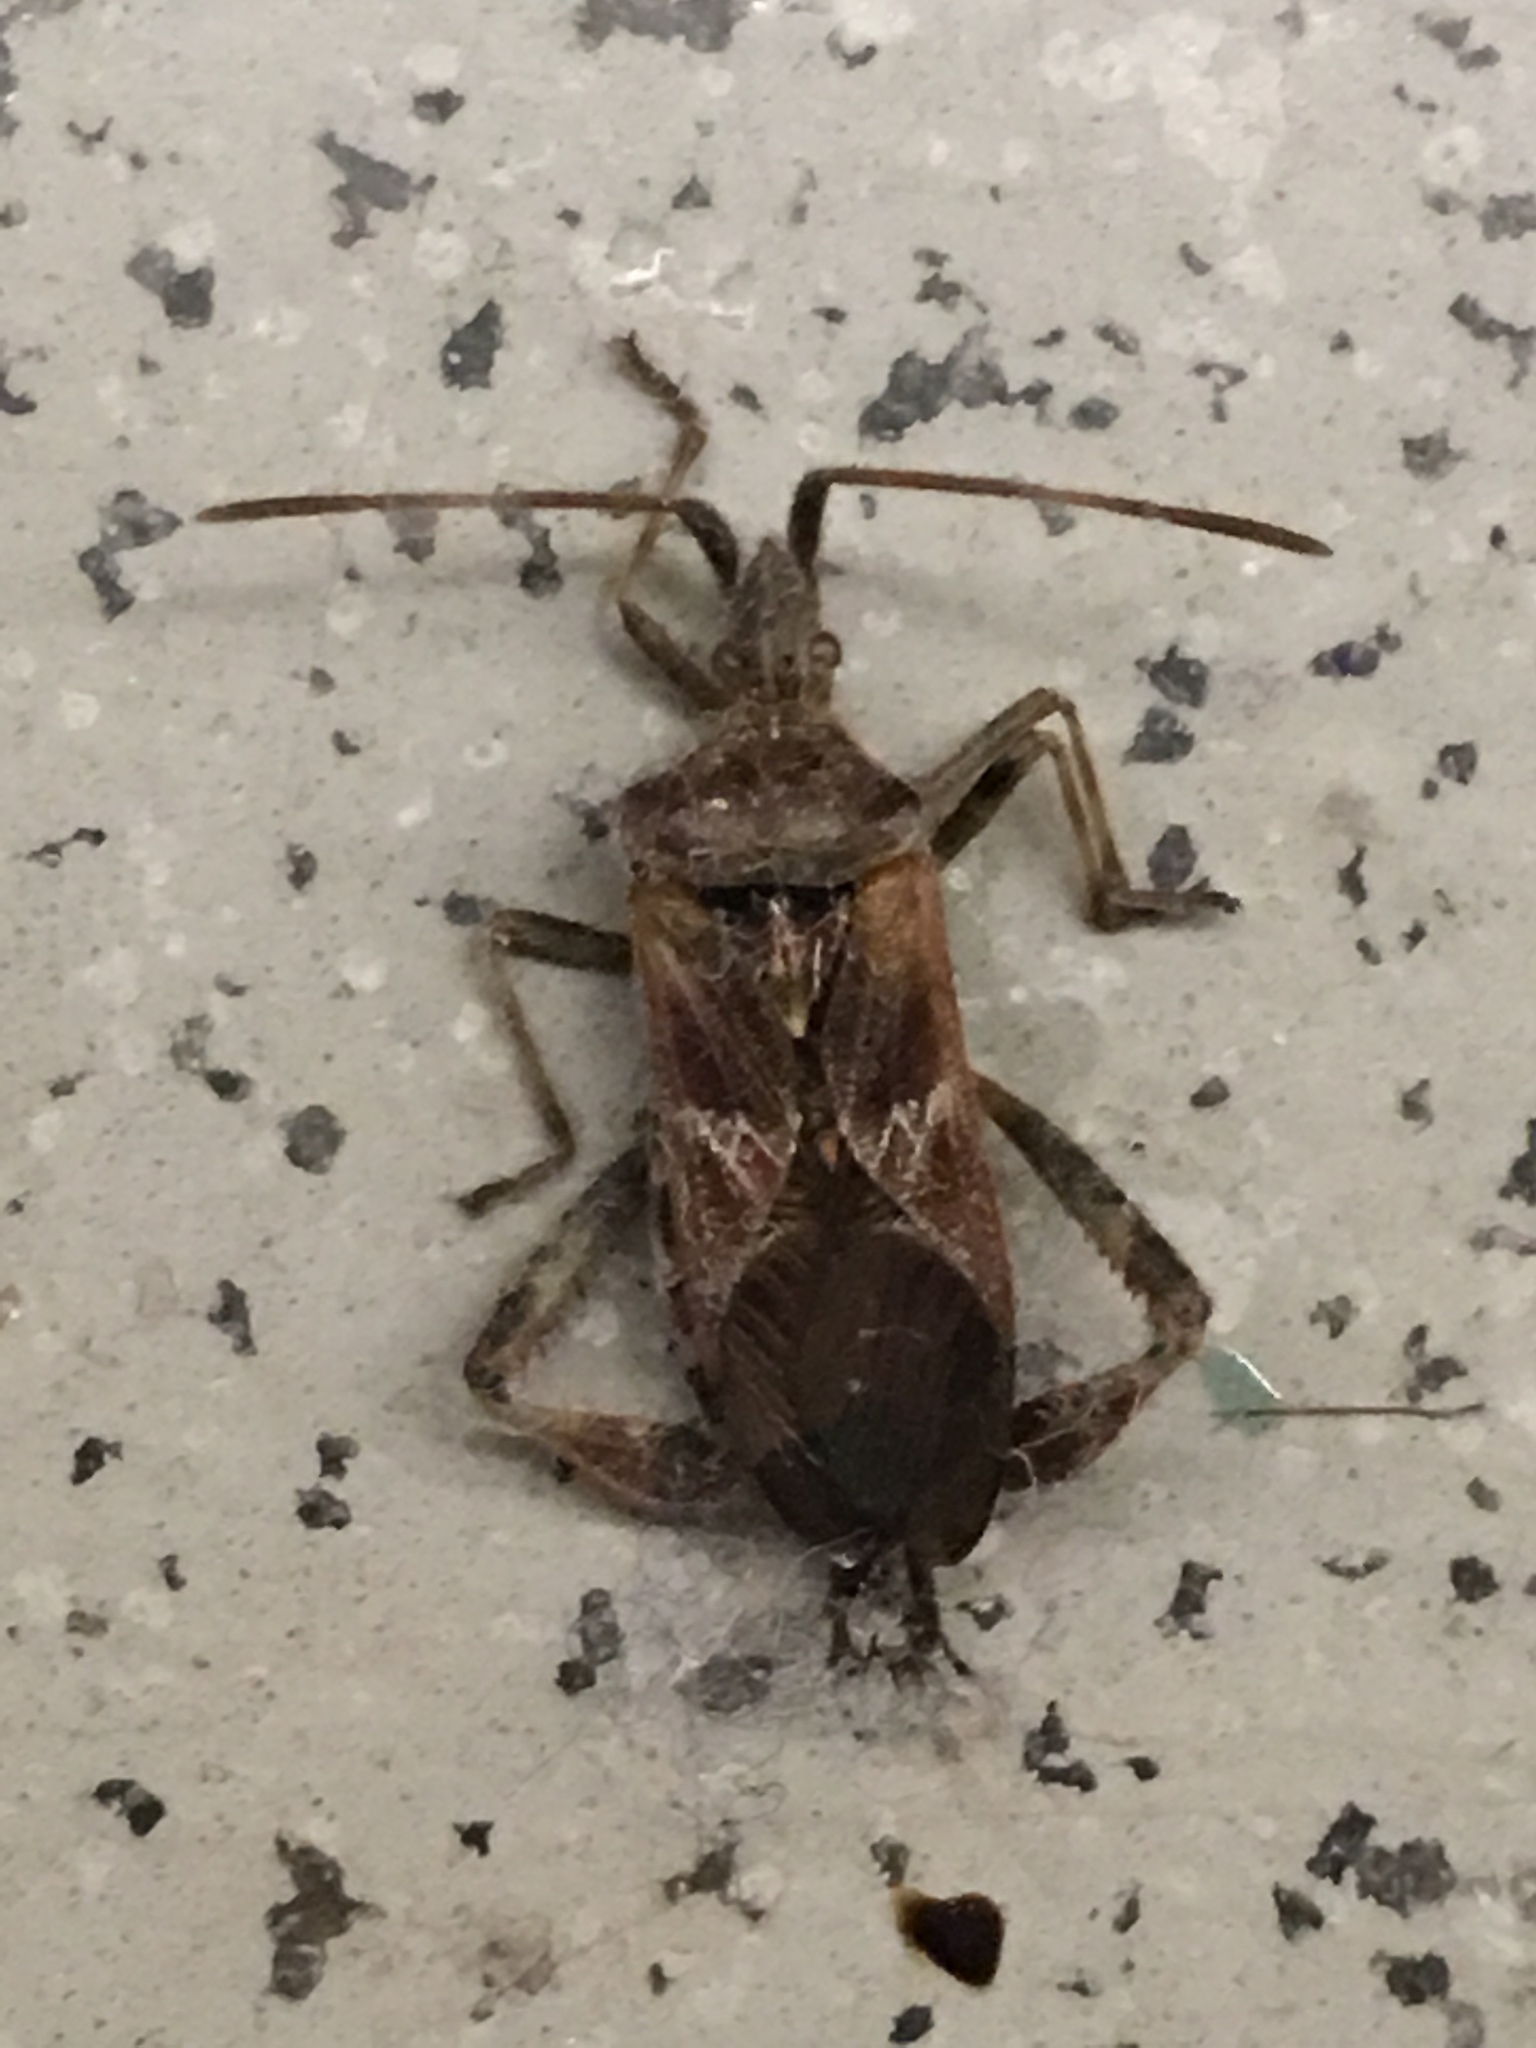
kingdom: Animalia
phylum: Arthropoda
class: Insecta
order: Hemiptera
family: Coreidae
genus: Leptoglossus
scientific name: Leptoglossus occidentalis
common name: Western conifer-seed bug
